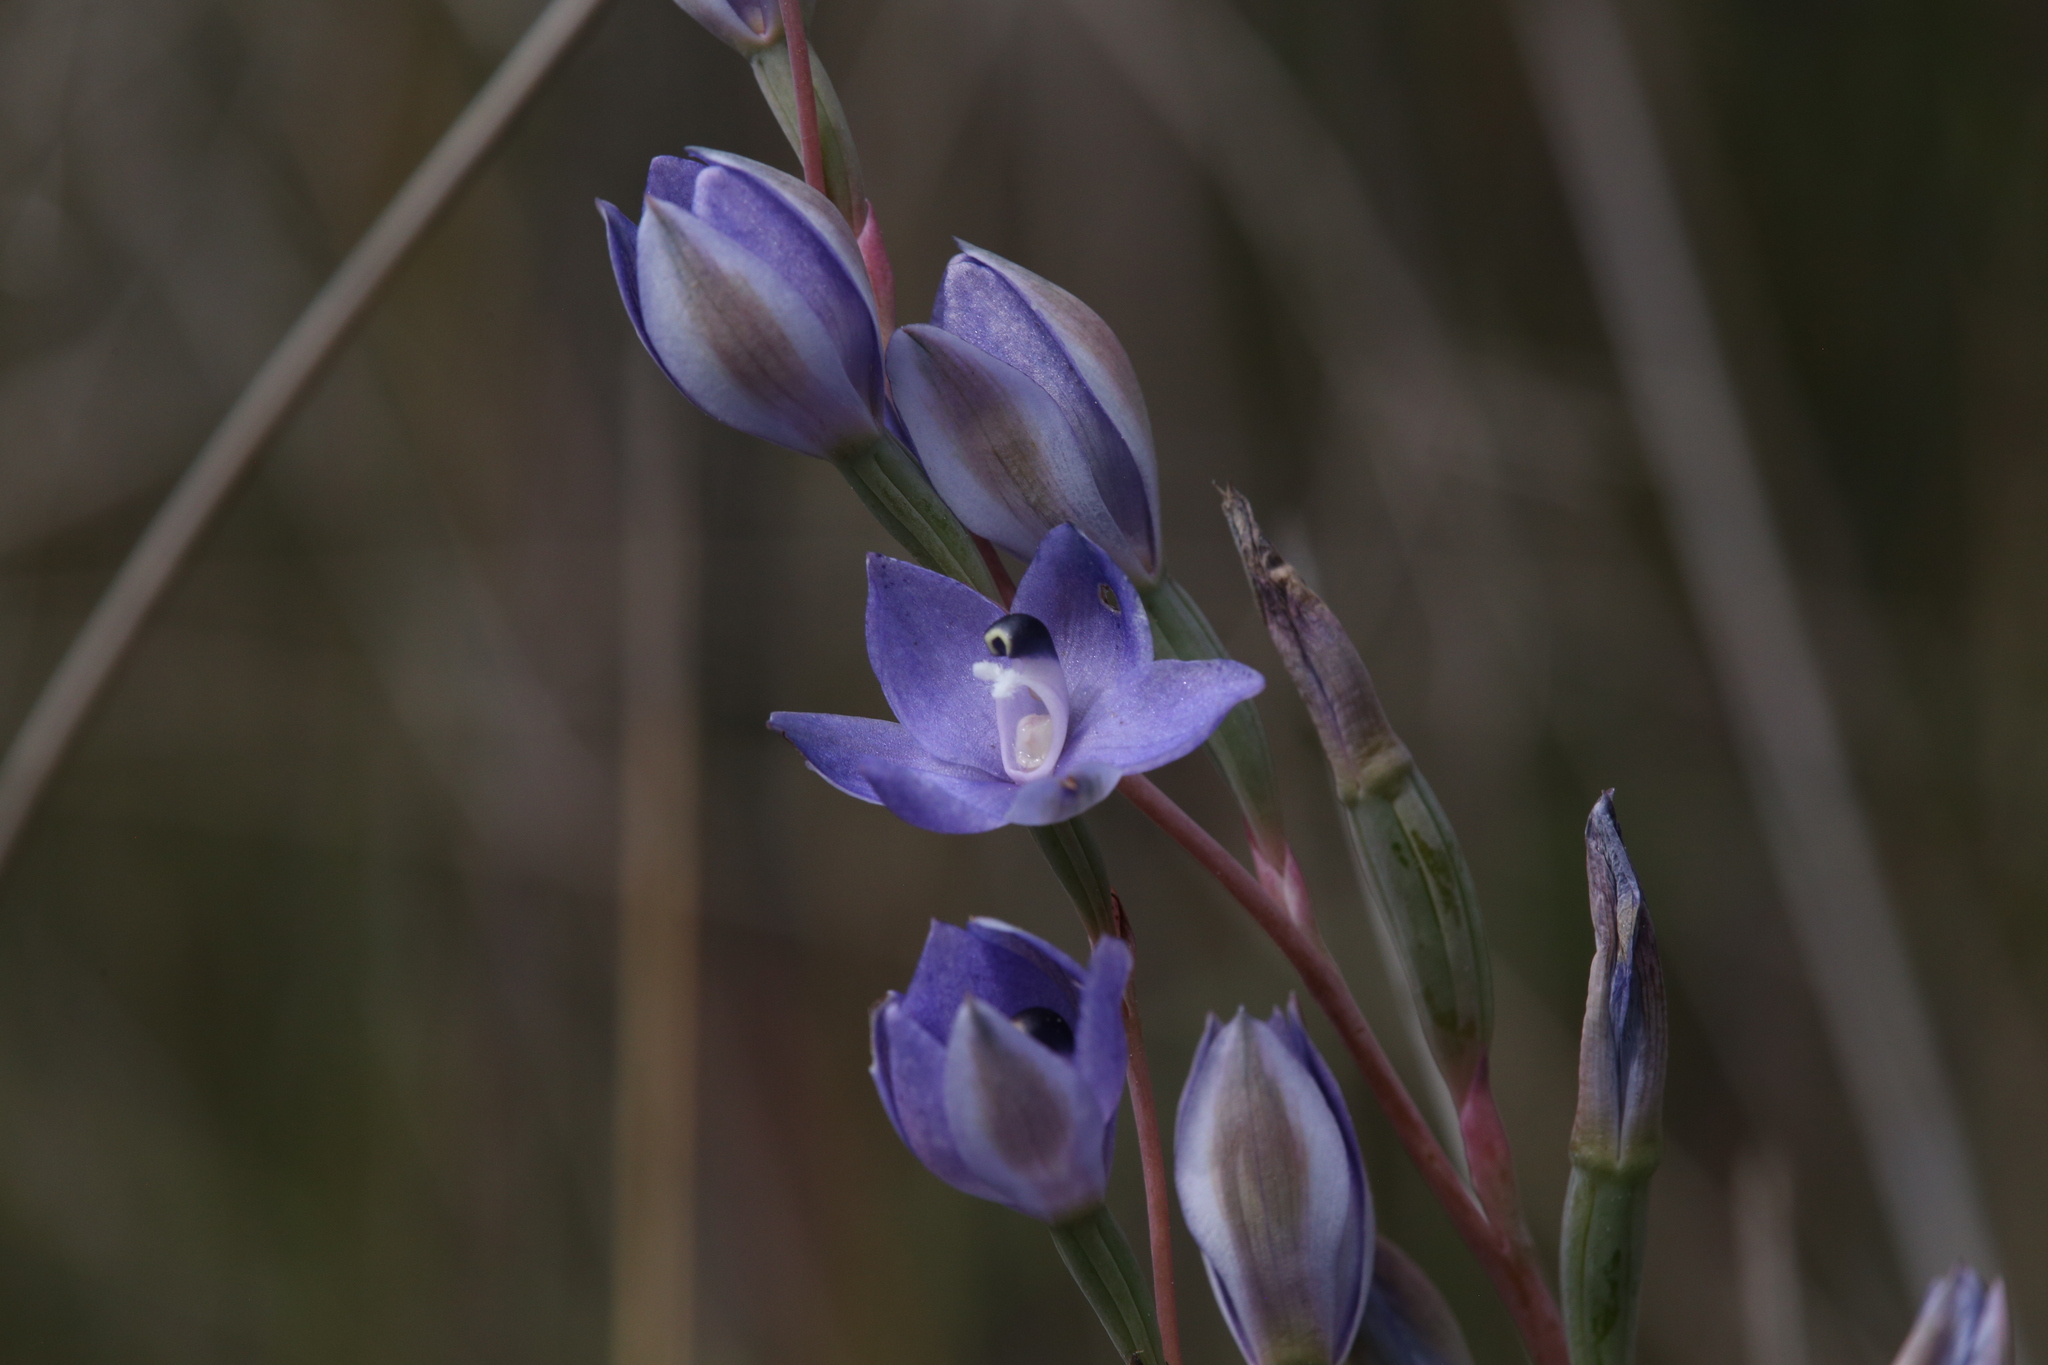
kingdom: Plantae
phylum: Tracheophyta
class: Liliopsida
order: Asparagales
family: Orchidaceae
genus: Thelymitra
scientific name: Thelymitra paludosa
